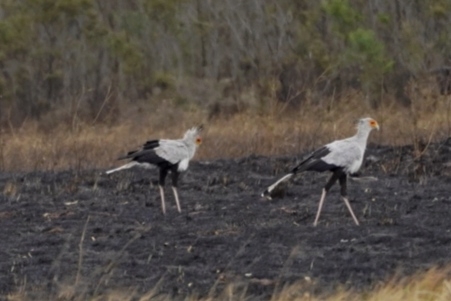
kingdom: Animalia
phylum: Chordata
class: Aves
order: Accipitriformes
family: Sagittariidae
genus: Sagittarius
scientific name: Sagittarius serpentarius
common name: Secretarybird
